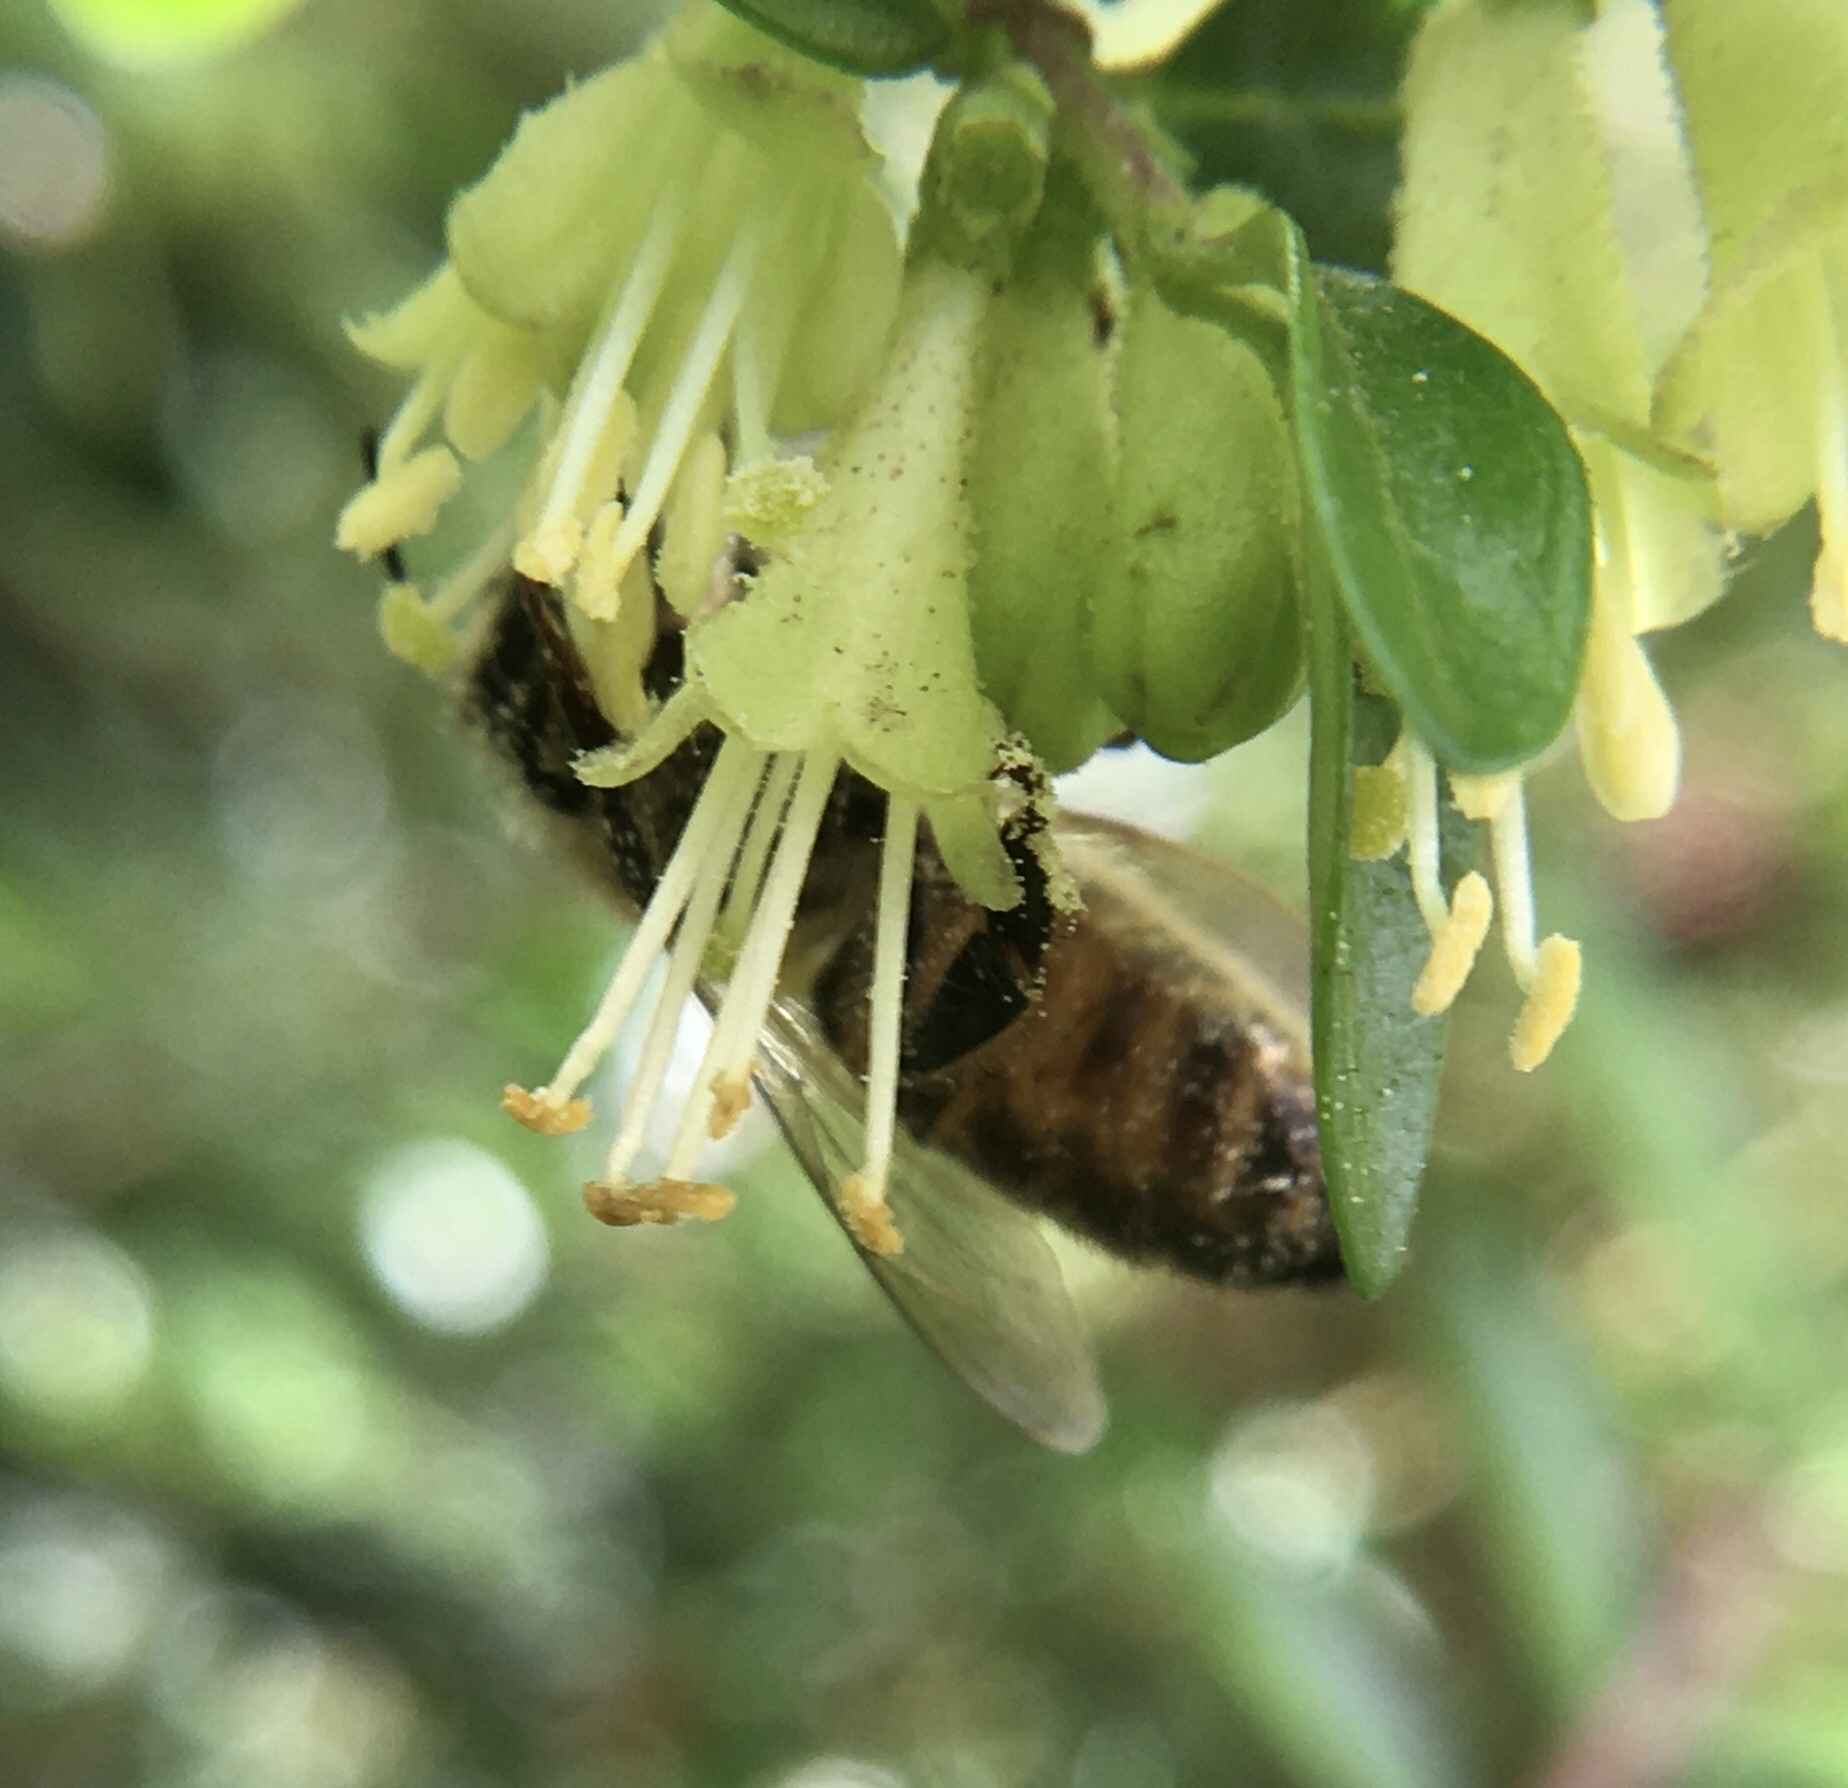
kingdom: Animalia
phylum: Arthropoda
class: Insecta
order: Hymenoptera
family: Apidae
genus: Apis
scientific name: Apis mellifera
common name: Honey bee
